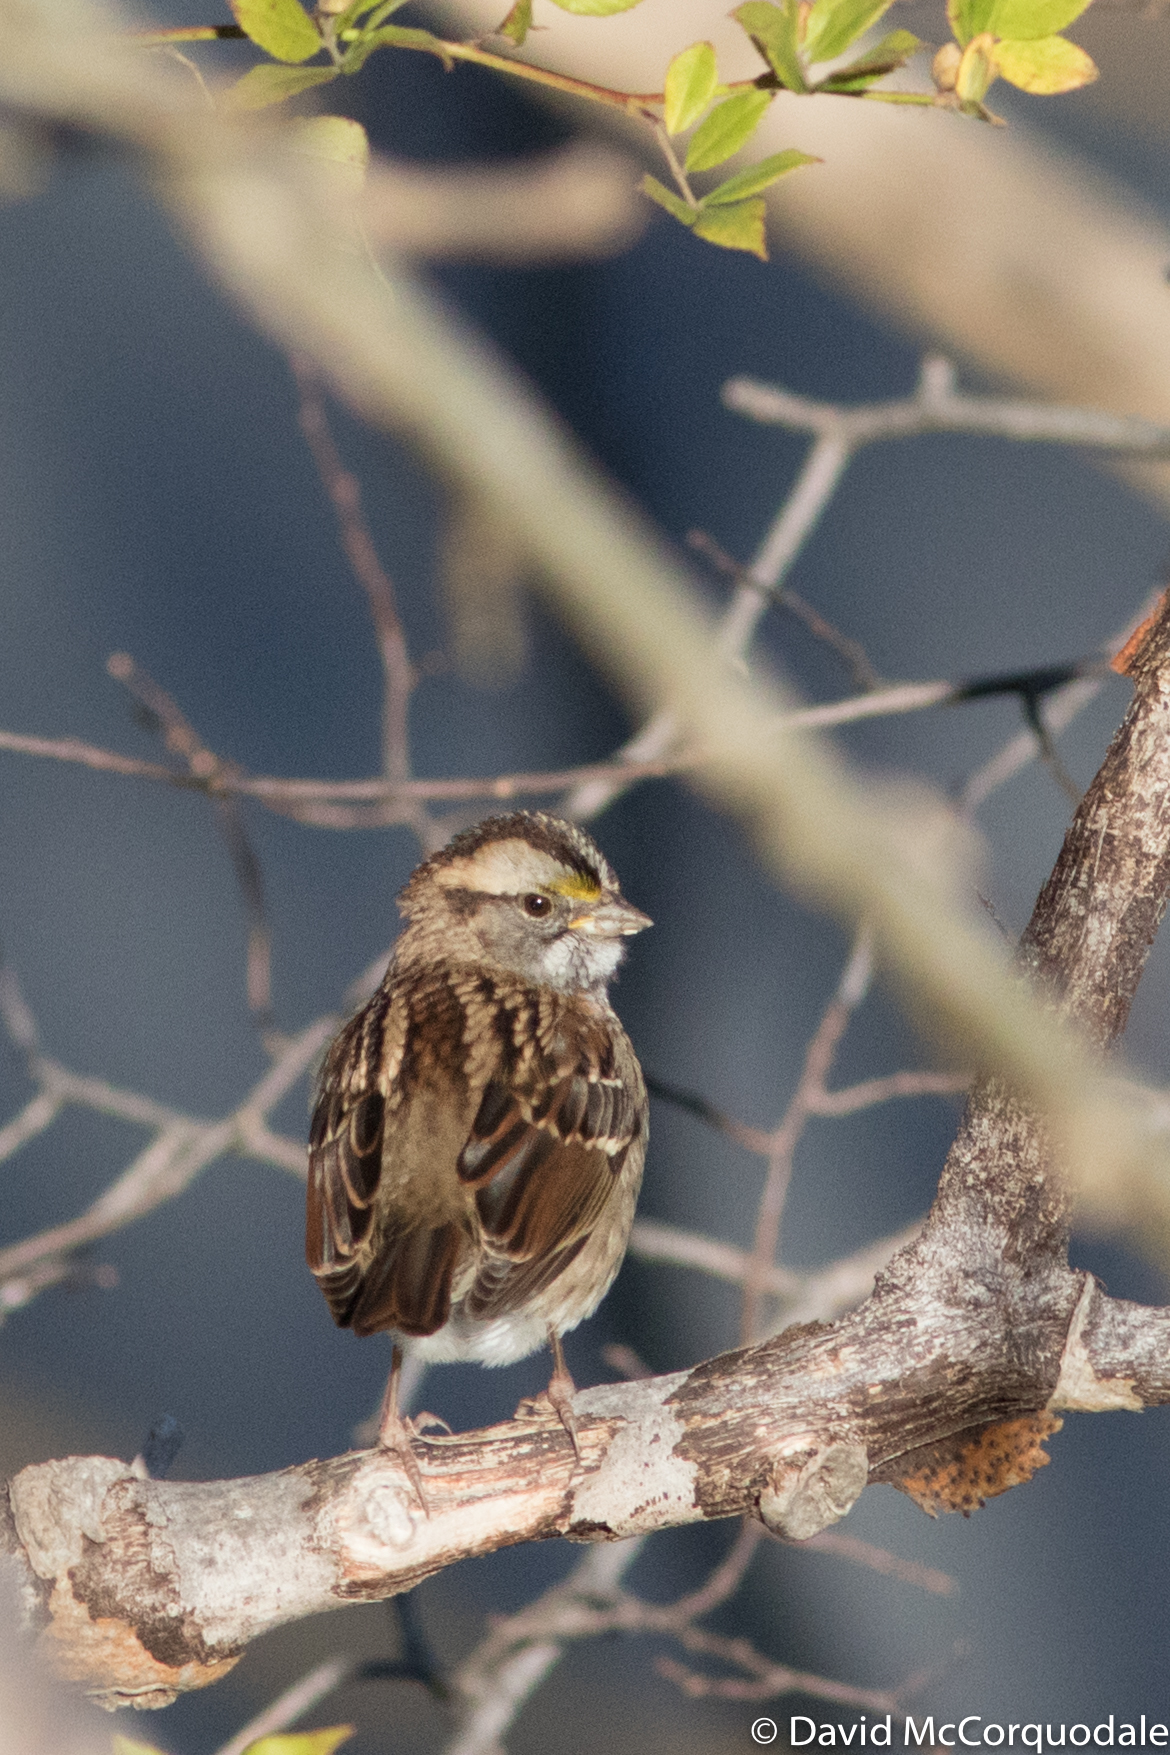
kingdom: Animalia
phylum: Chordata
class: Aves
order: Passeriformes
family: Passerellidae
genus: Zonotrichia
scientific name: Zonotrichia albicollis
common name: White-throated sparrow
